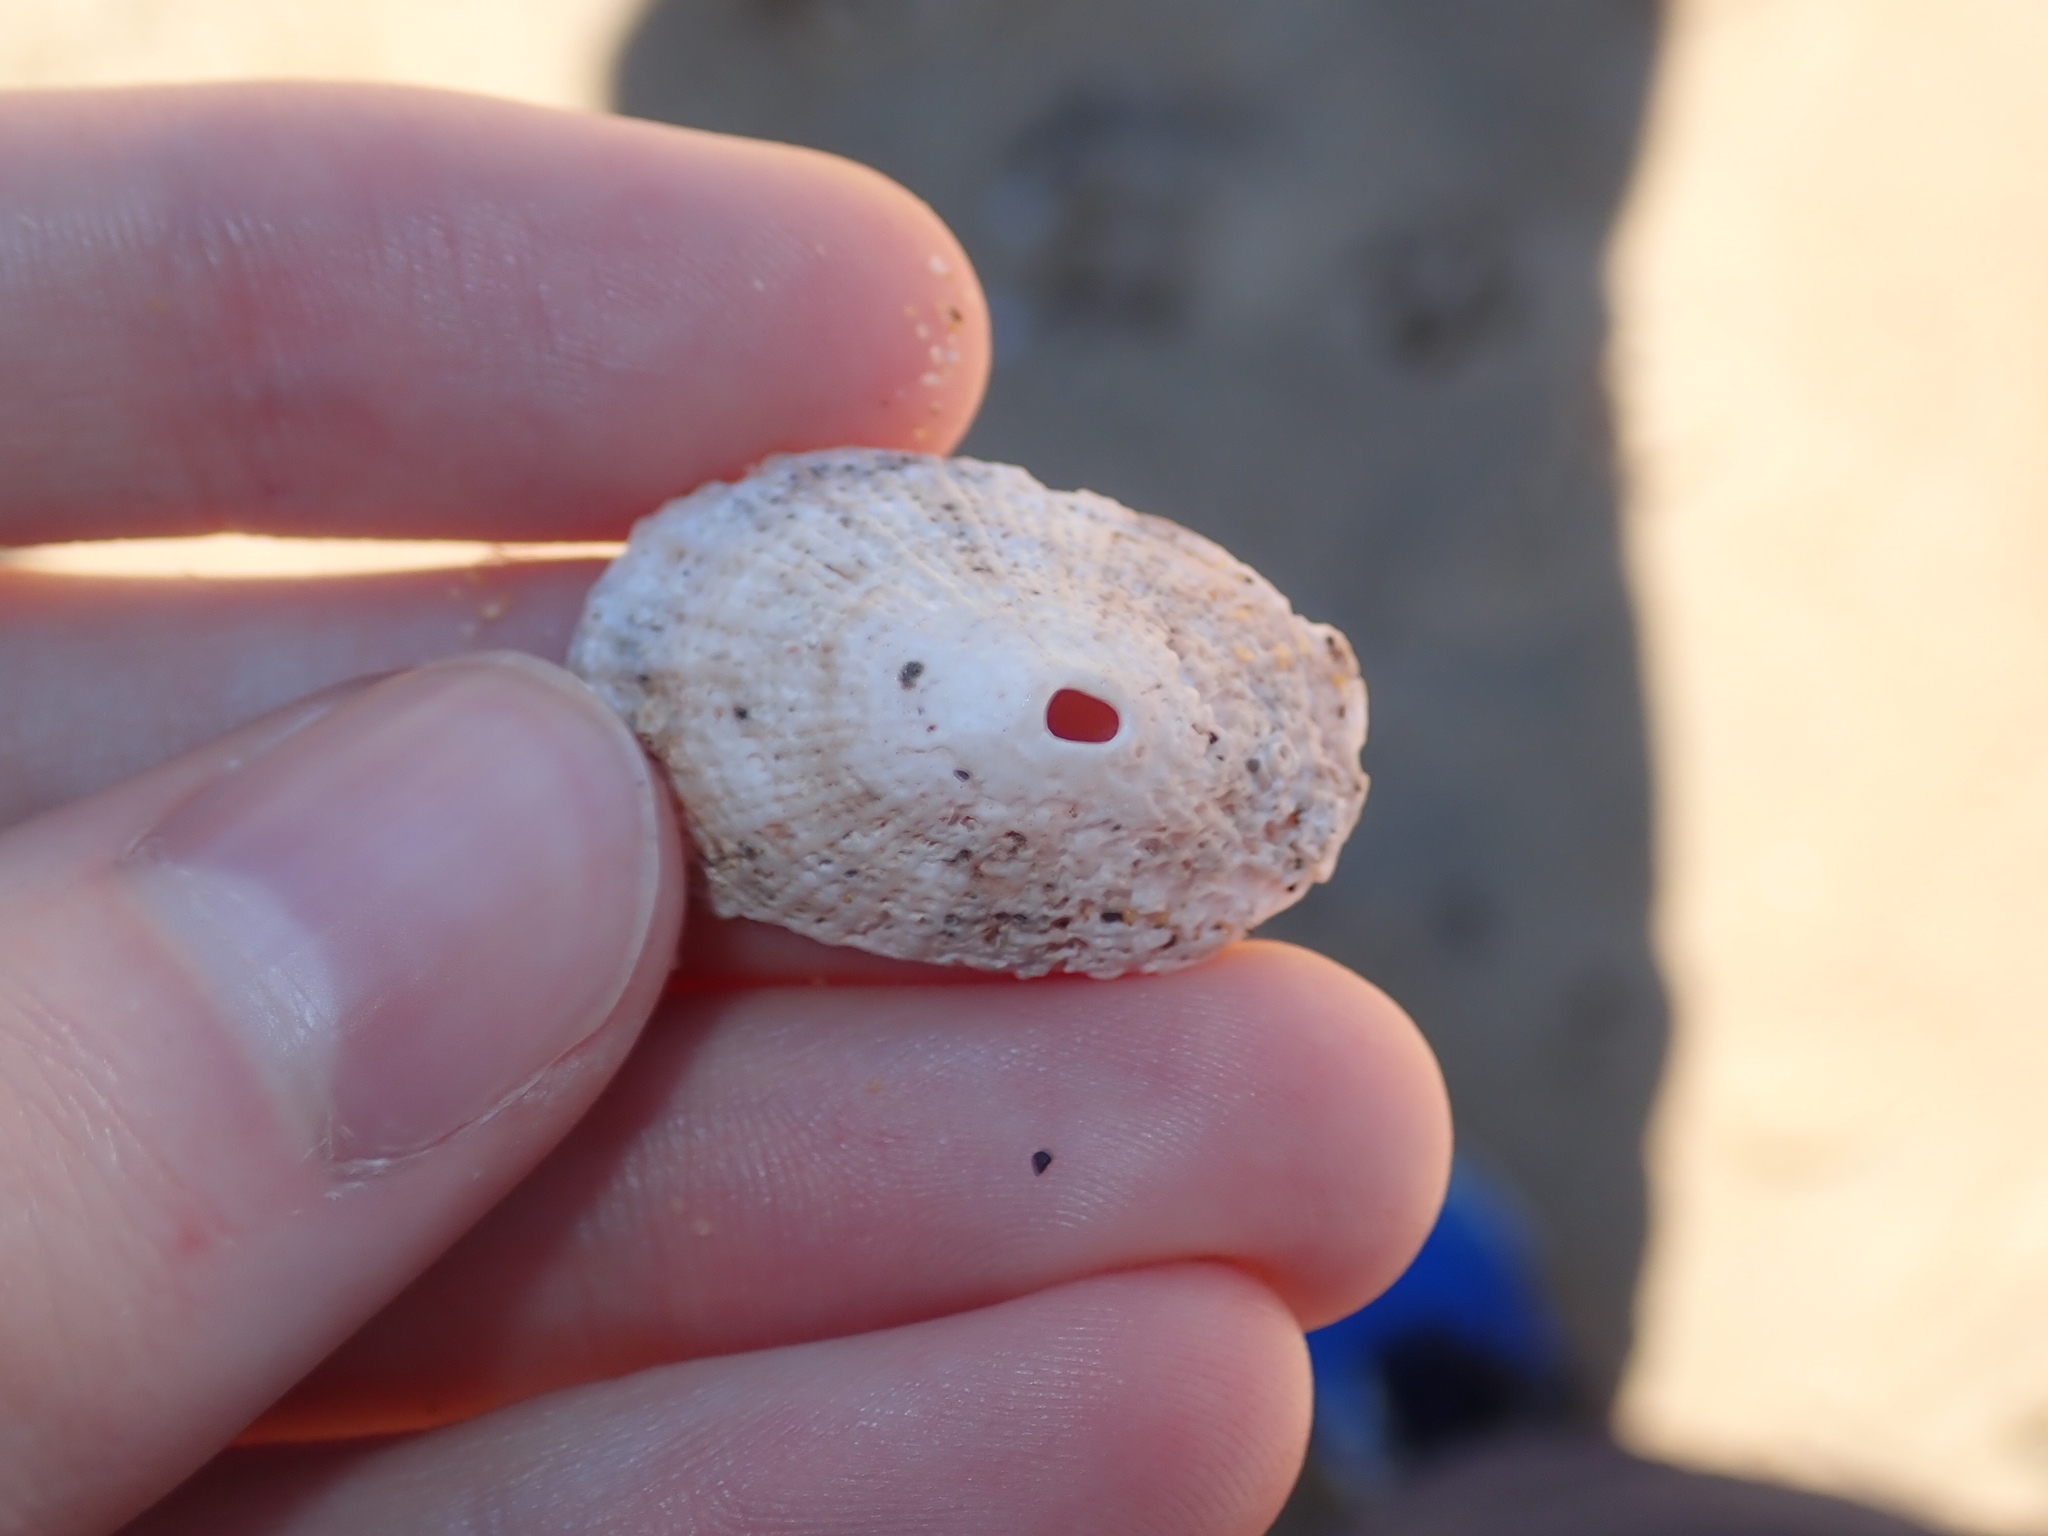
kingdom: Animalia
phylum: Mollusca
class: Gastropoda
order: Lepetellida
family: Fissurellidae
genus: Diodora
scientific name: Diodora lineata
